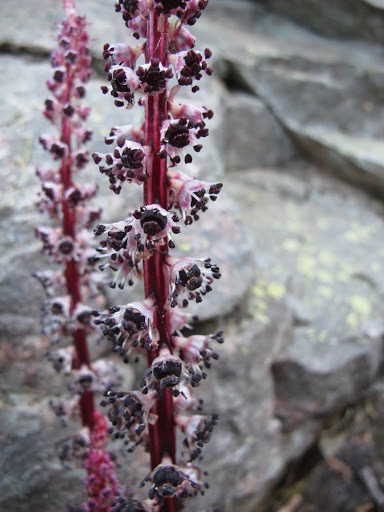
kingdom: Plantae
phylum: Tracheophyta
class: Magnoliopsida
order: Ericales
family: Ericaceae
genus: Allotropa
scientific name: Allotropa virgata
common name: Candy-striped allotropa
